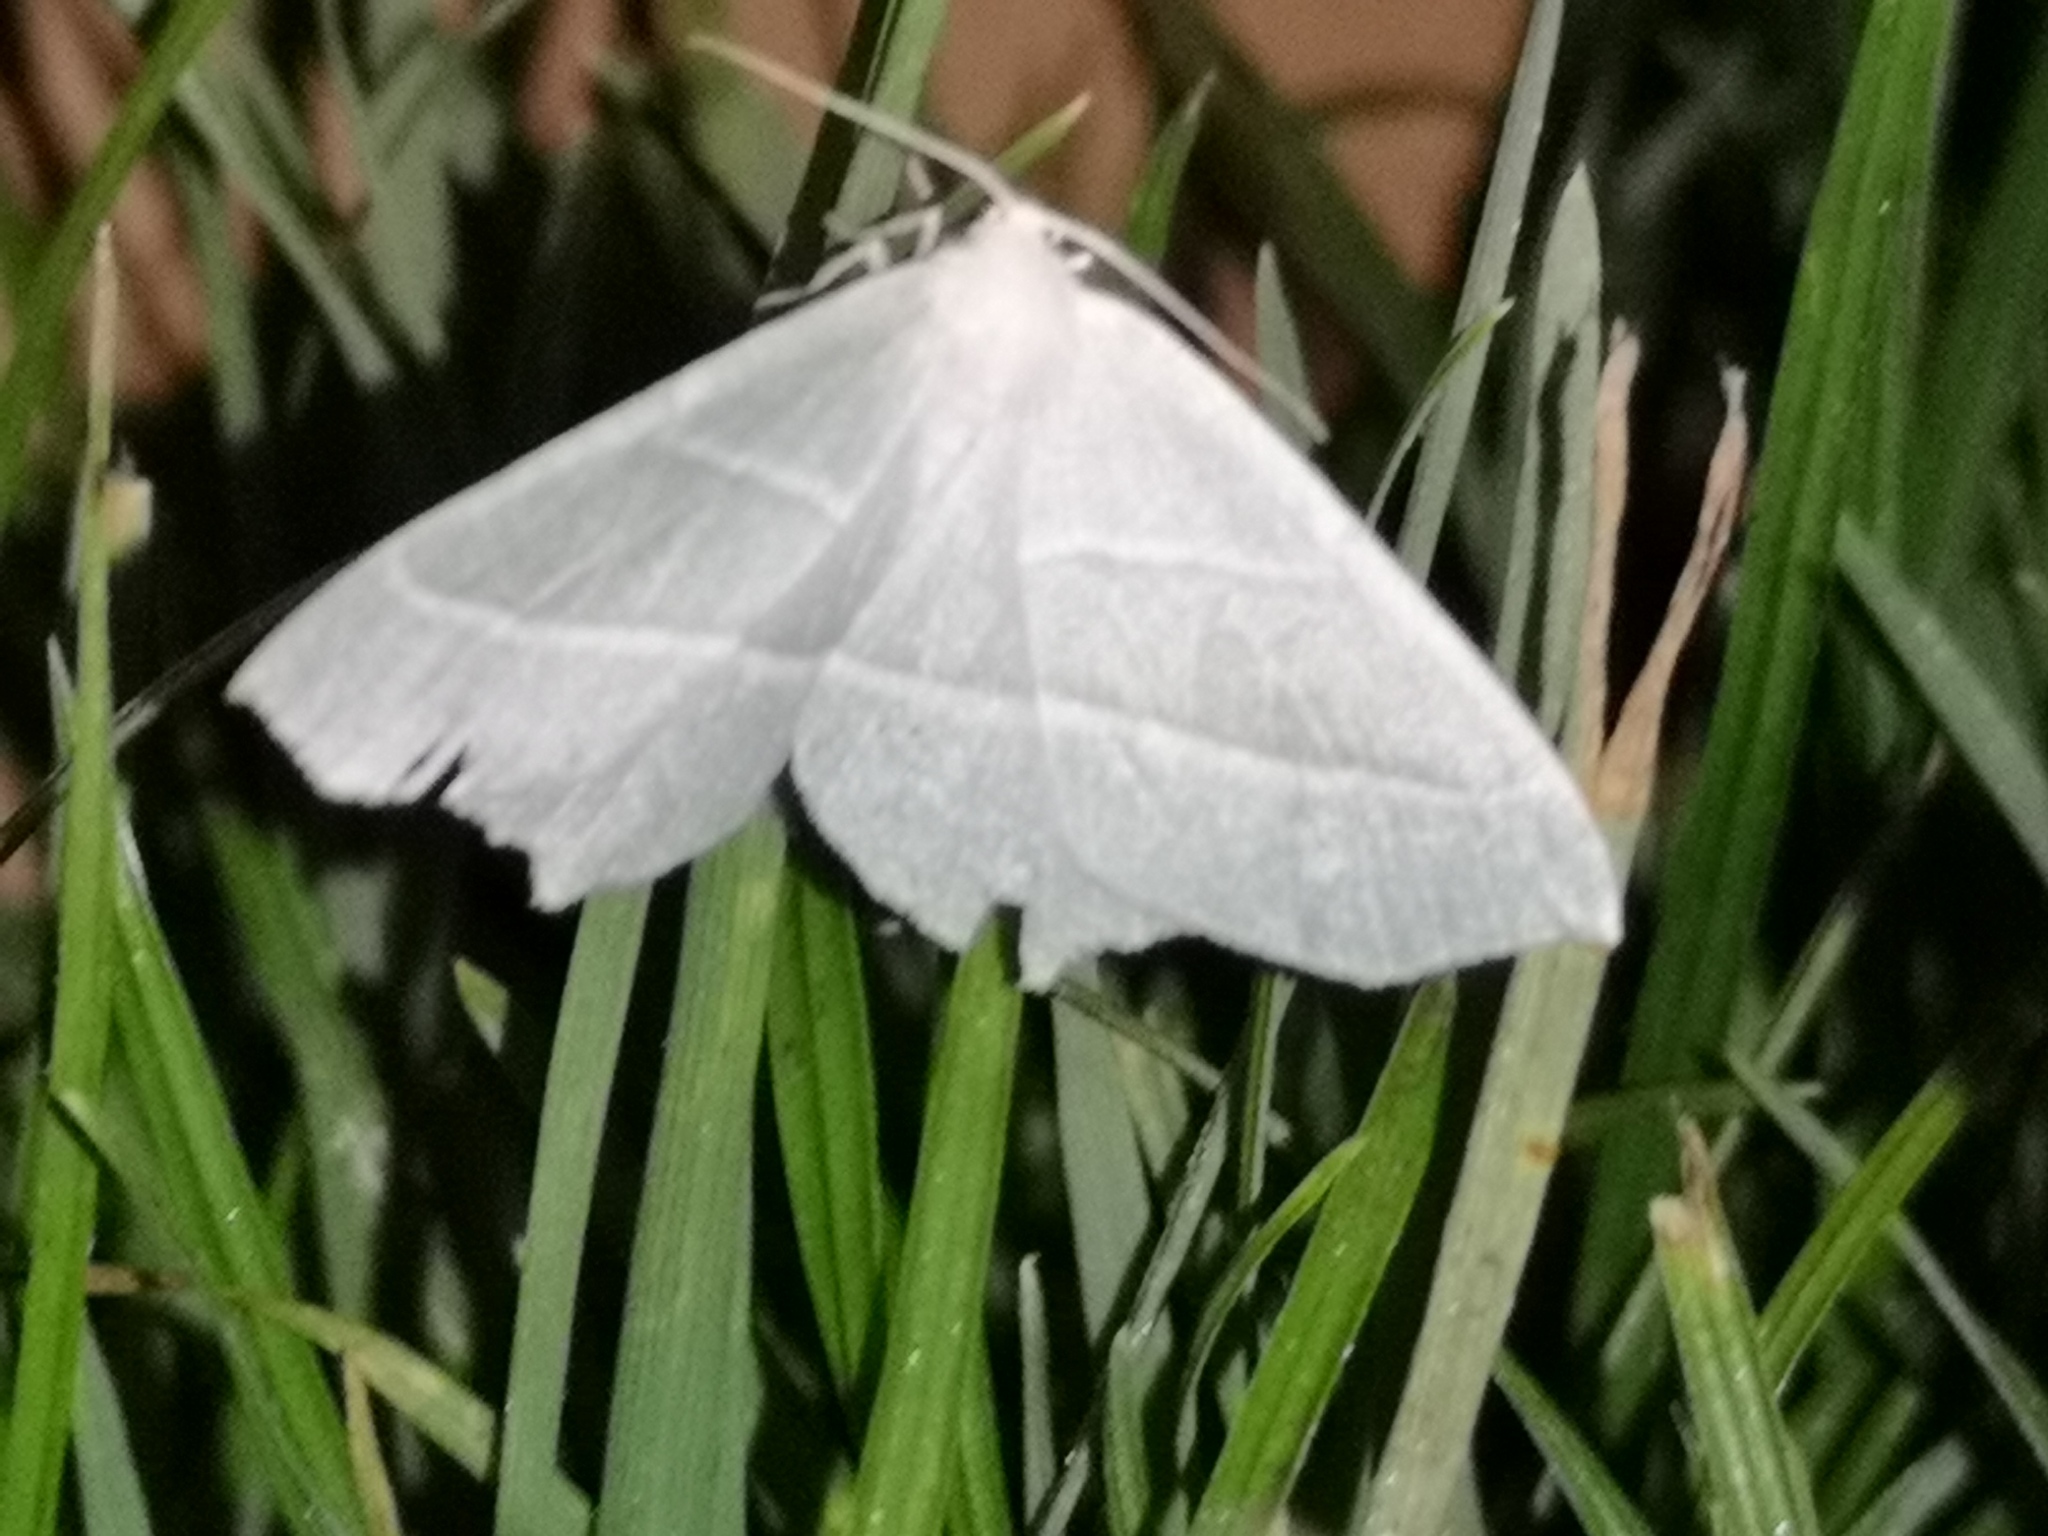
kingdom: Animalia
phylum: Arthropoda
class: Insecta
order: Lepidoptera
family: Geometridae
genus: Campaea
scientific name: Campaea margaritaria
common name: Light emerald
